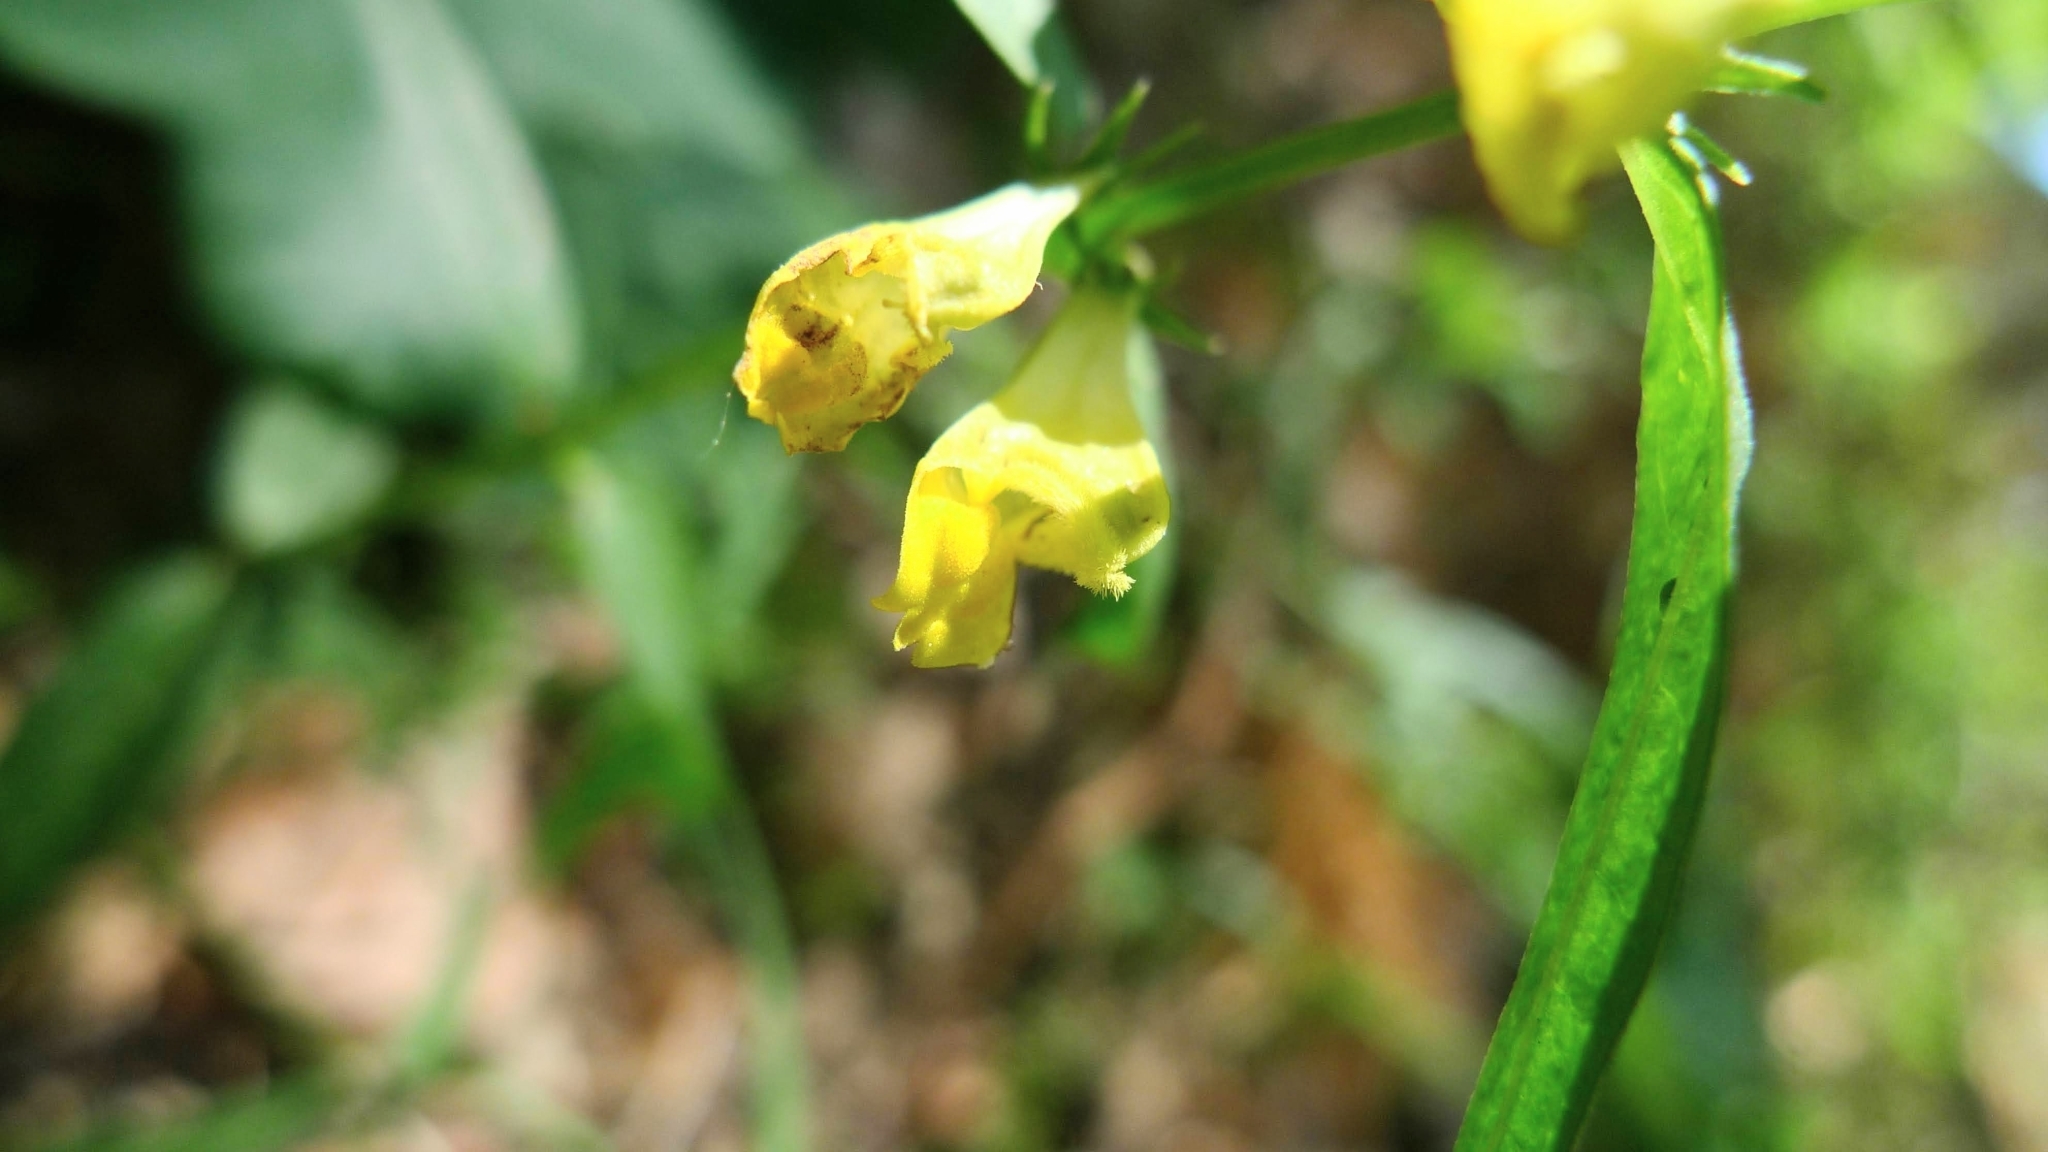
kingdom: Plantae
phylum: Tracheophyta
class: Magnoliopsida
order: Lamiales
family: Orobanchaceae
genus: Melampyrum
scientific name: Melampyrum pratense
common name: Common cow-wheat
